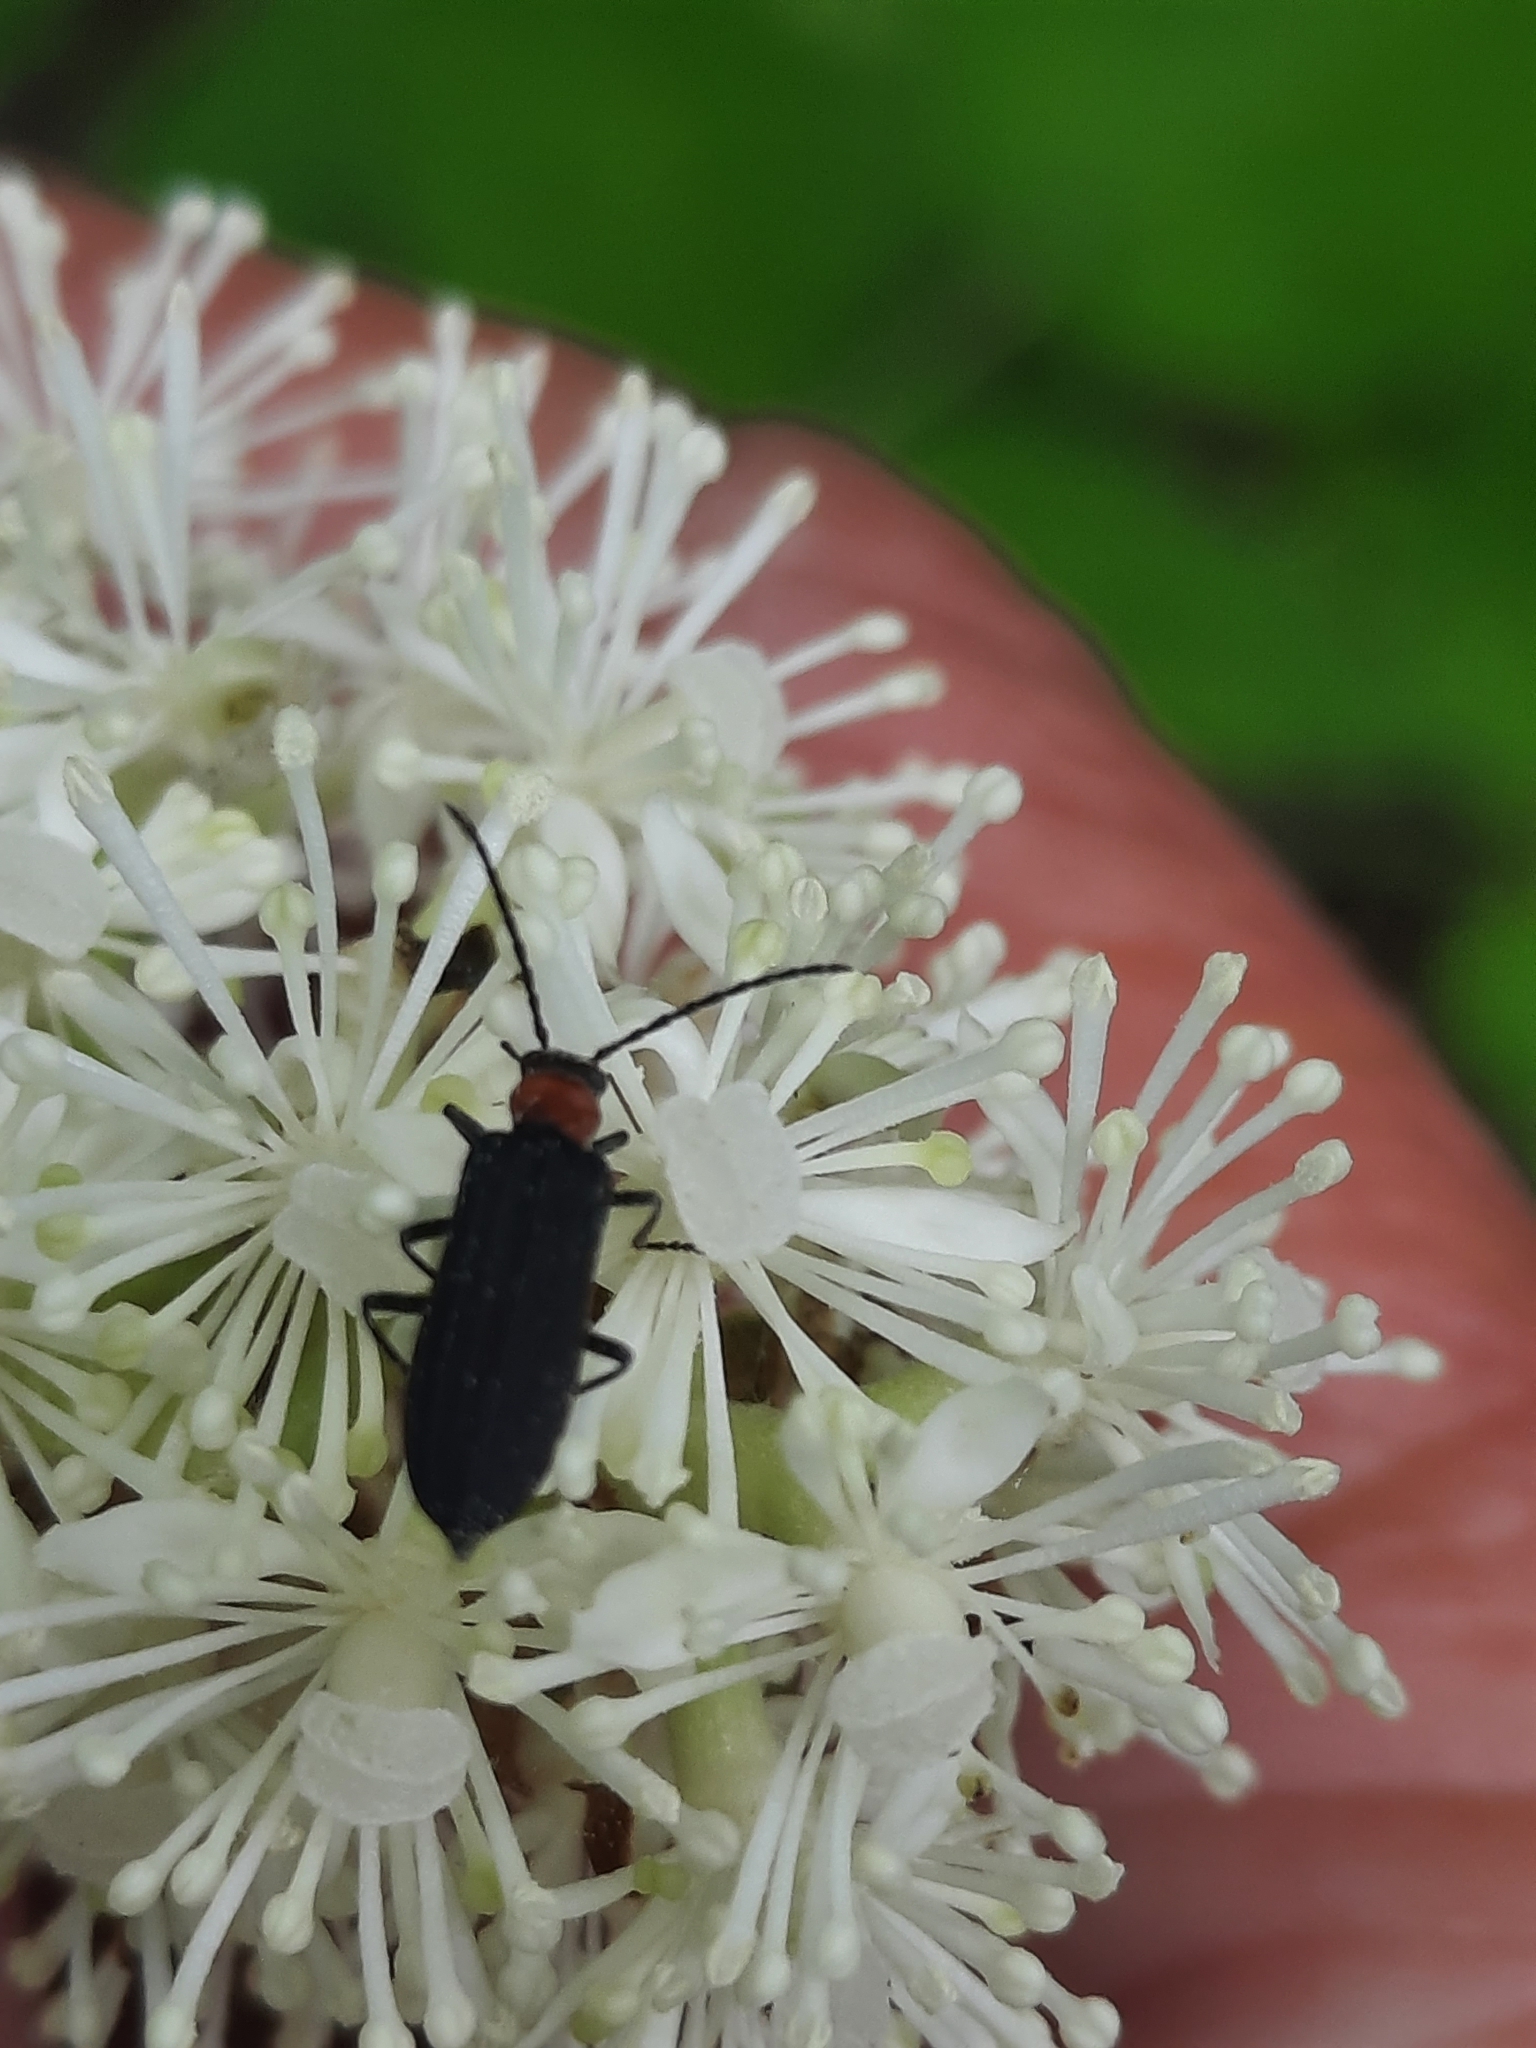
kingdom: Animalia
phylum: Arthropoda
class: Insecta
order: Coleoptera
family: Oedemeridae
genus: Ischnomera
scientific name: Ischnomera
